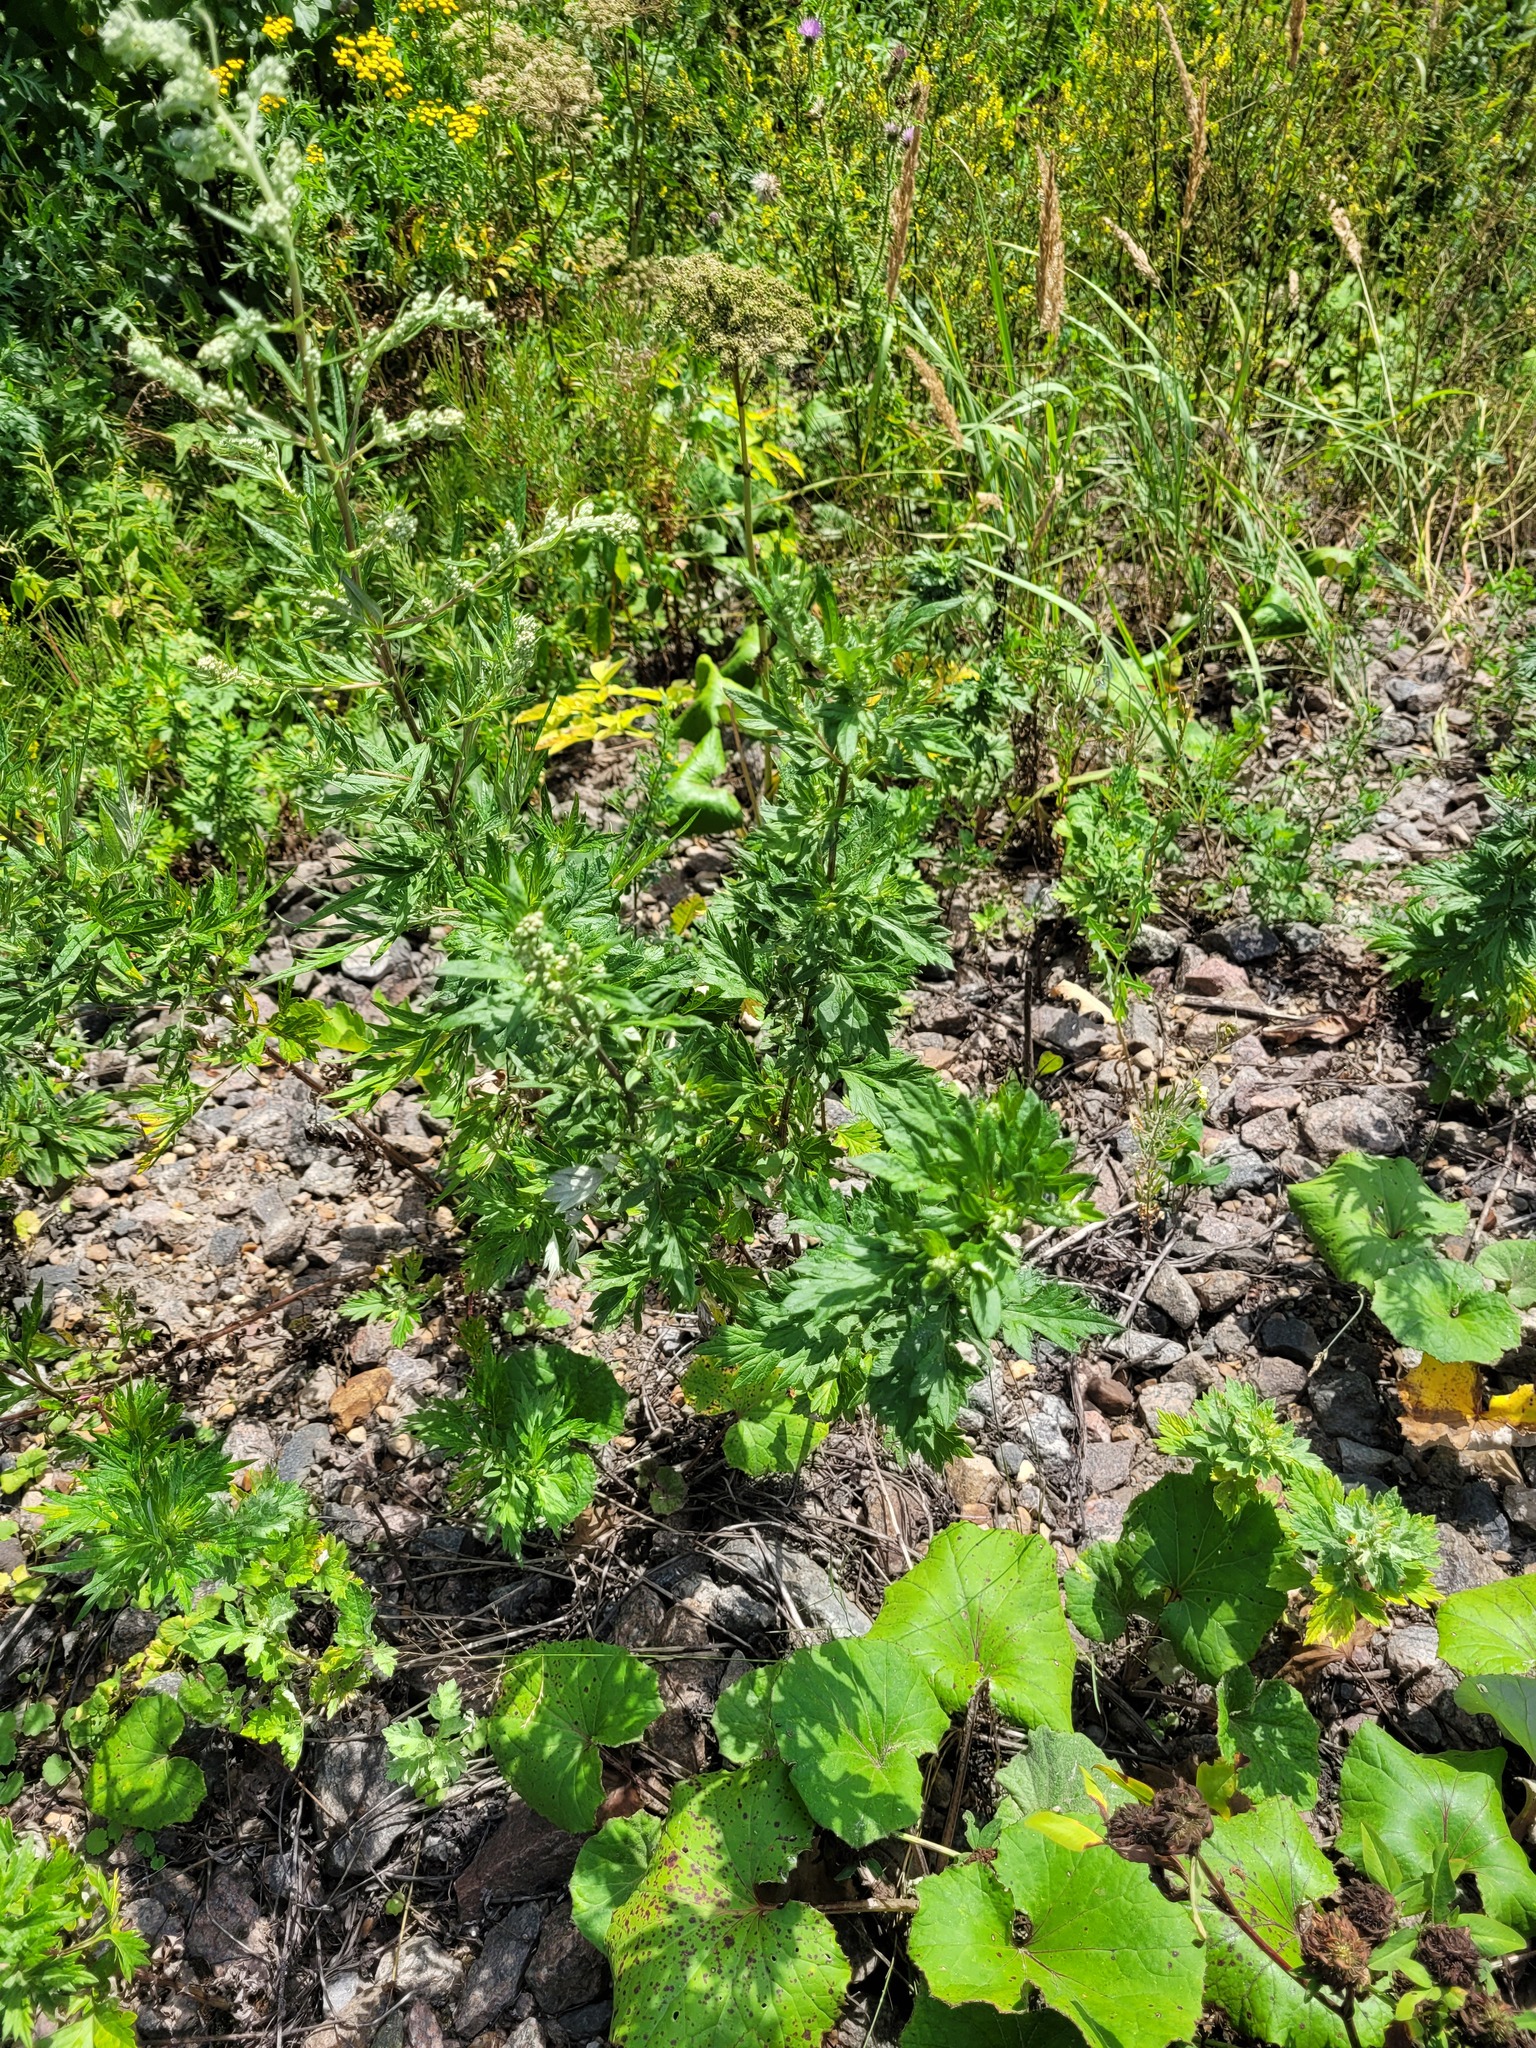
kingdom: Plantae
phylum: Tracheophyta
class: Magnoliopsida
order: Asterales
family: Asteraceae
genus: Artemisia
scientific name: Artemisia vulgaris
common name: Mugwort
